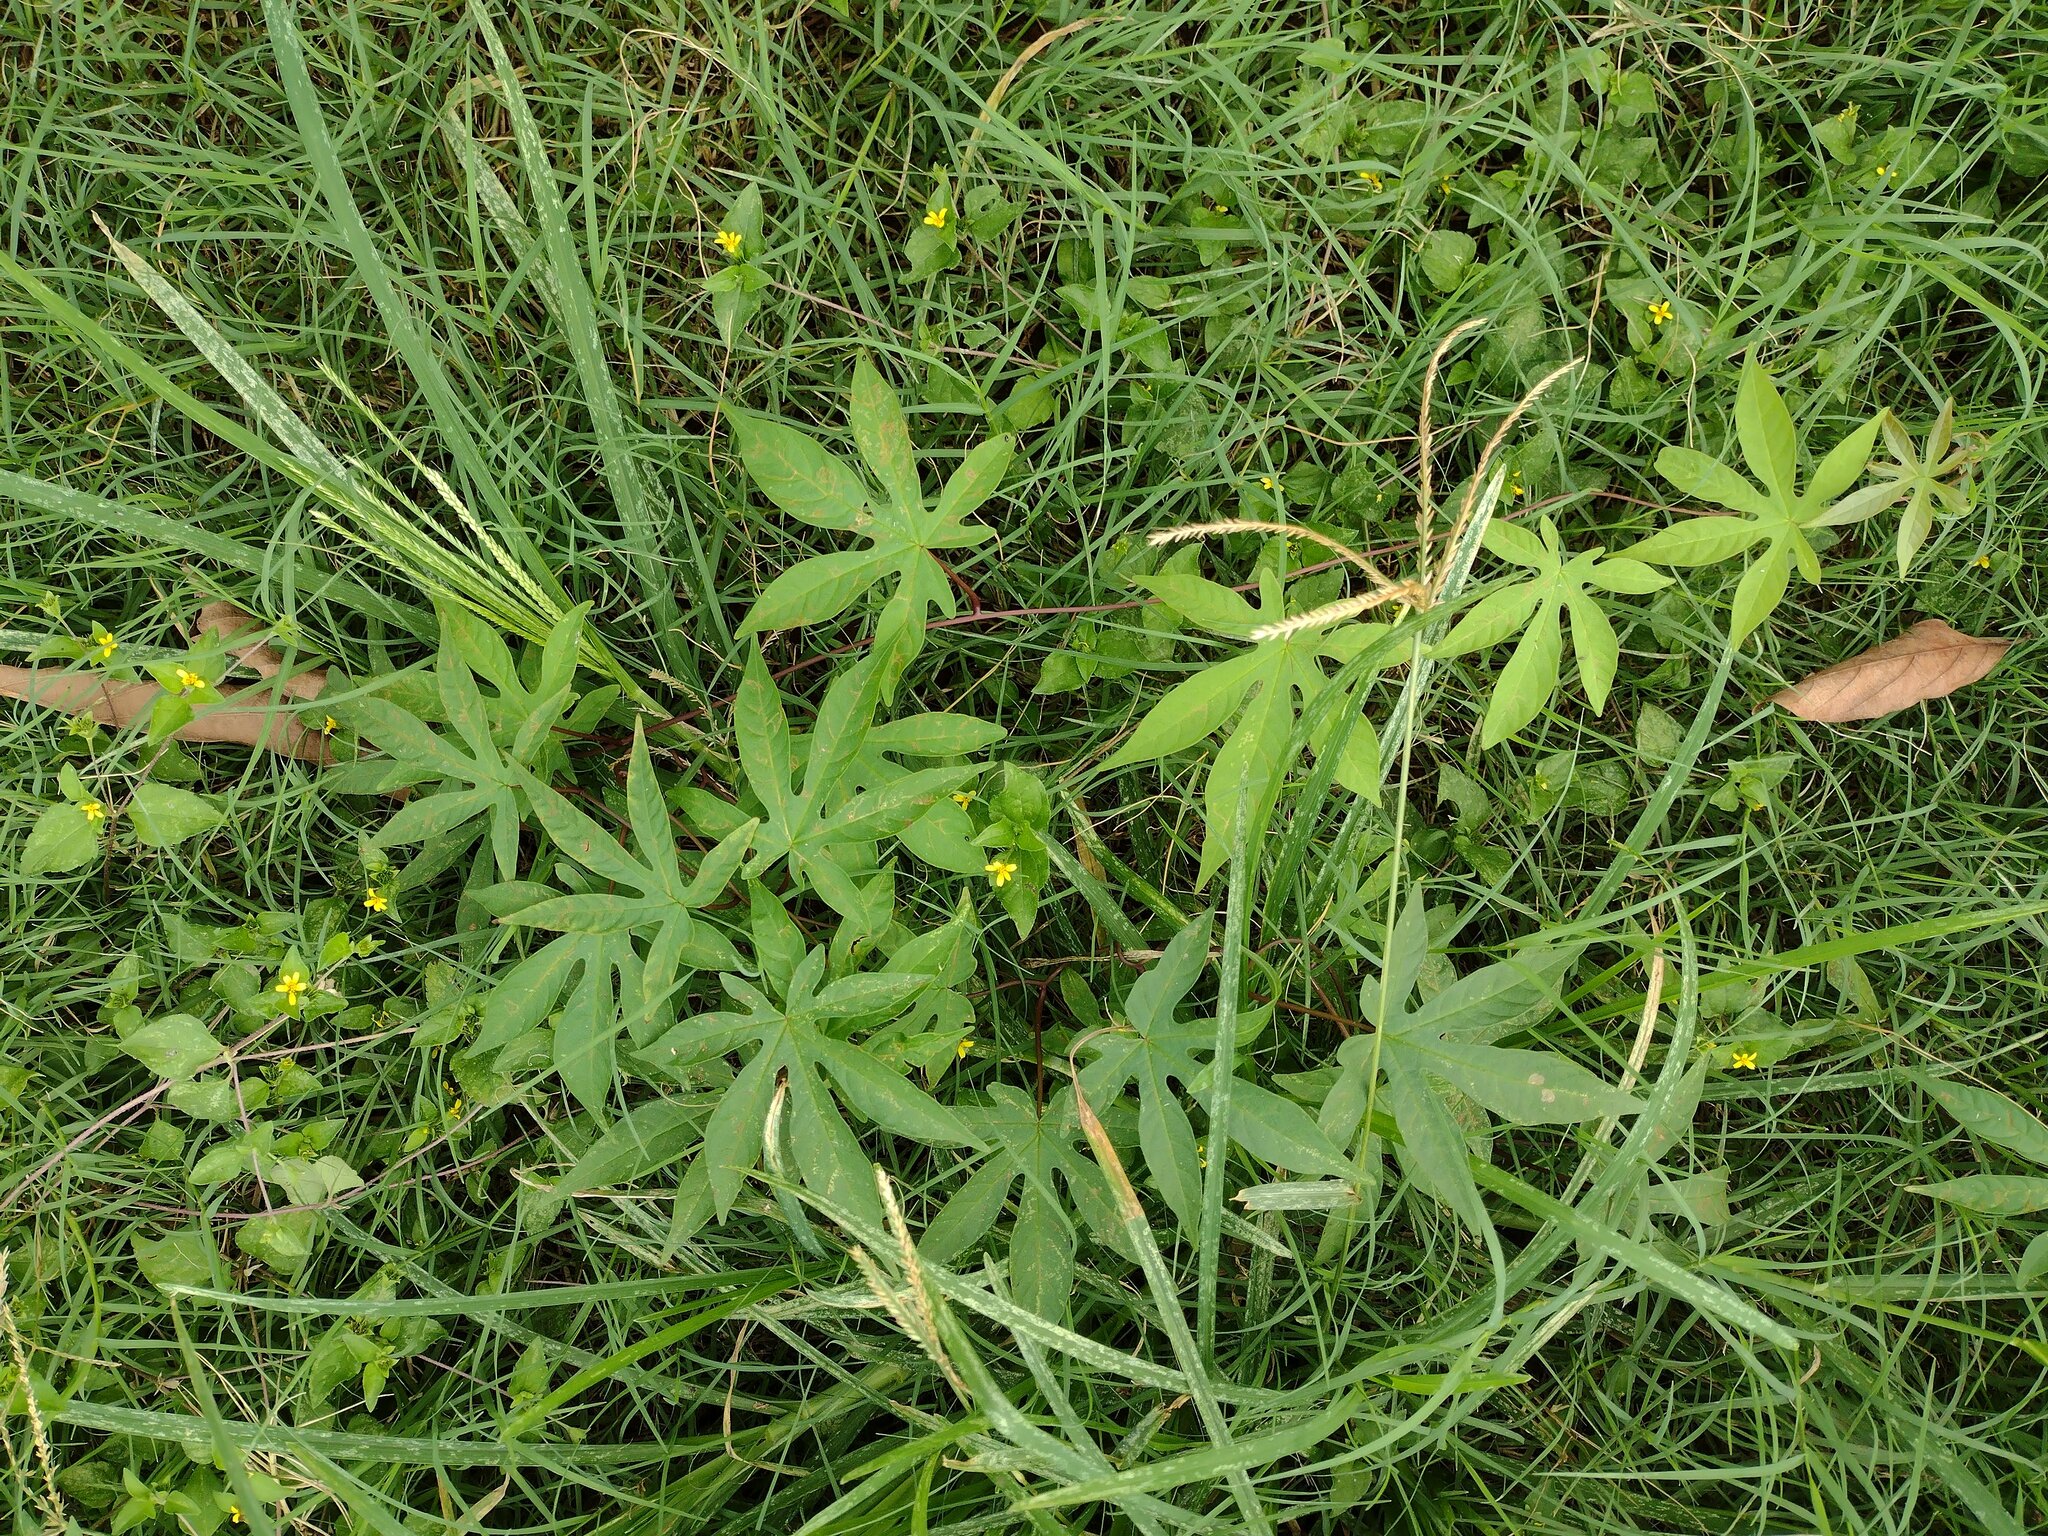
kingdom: Plantae
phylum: Tracheophyta
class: Magnoliopsida
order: Solanales
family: Convolvulaceae
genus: Ipomoea
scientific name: Ipomoea cairica
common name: Mile a minute vine
